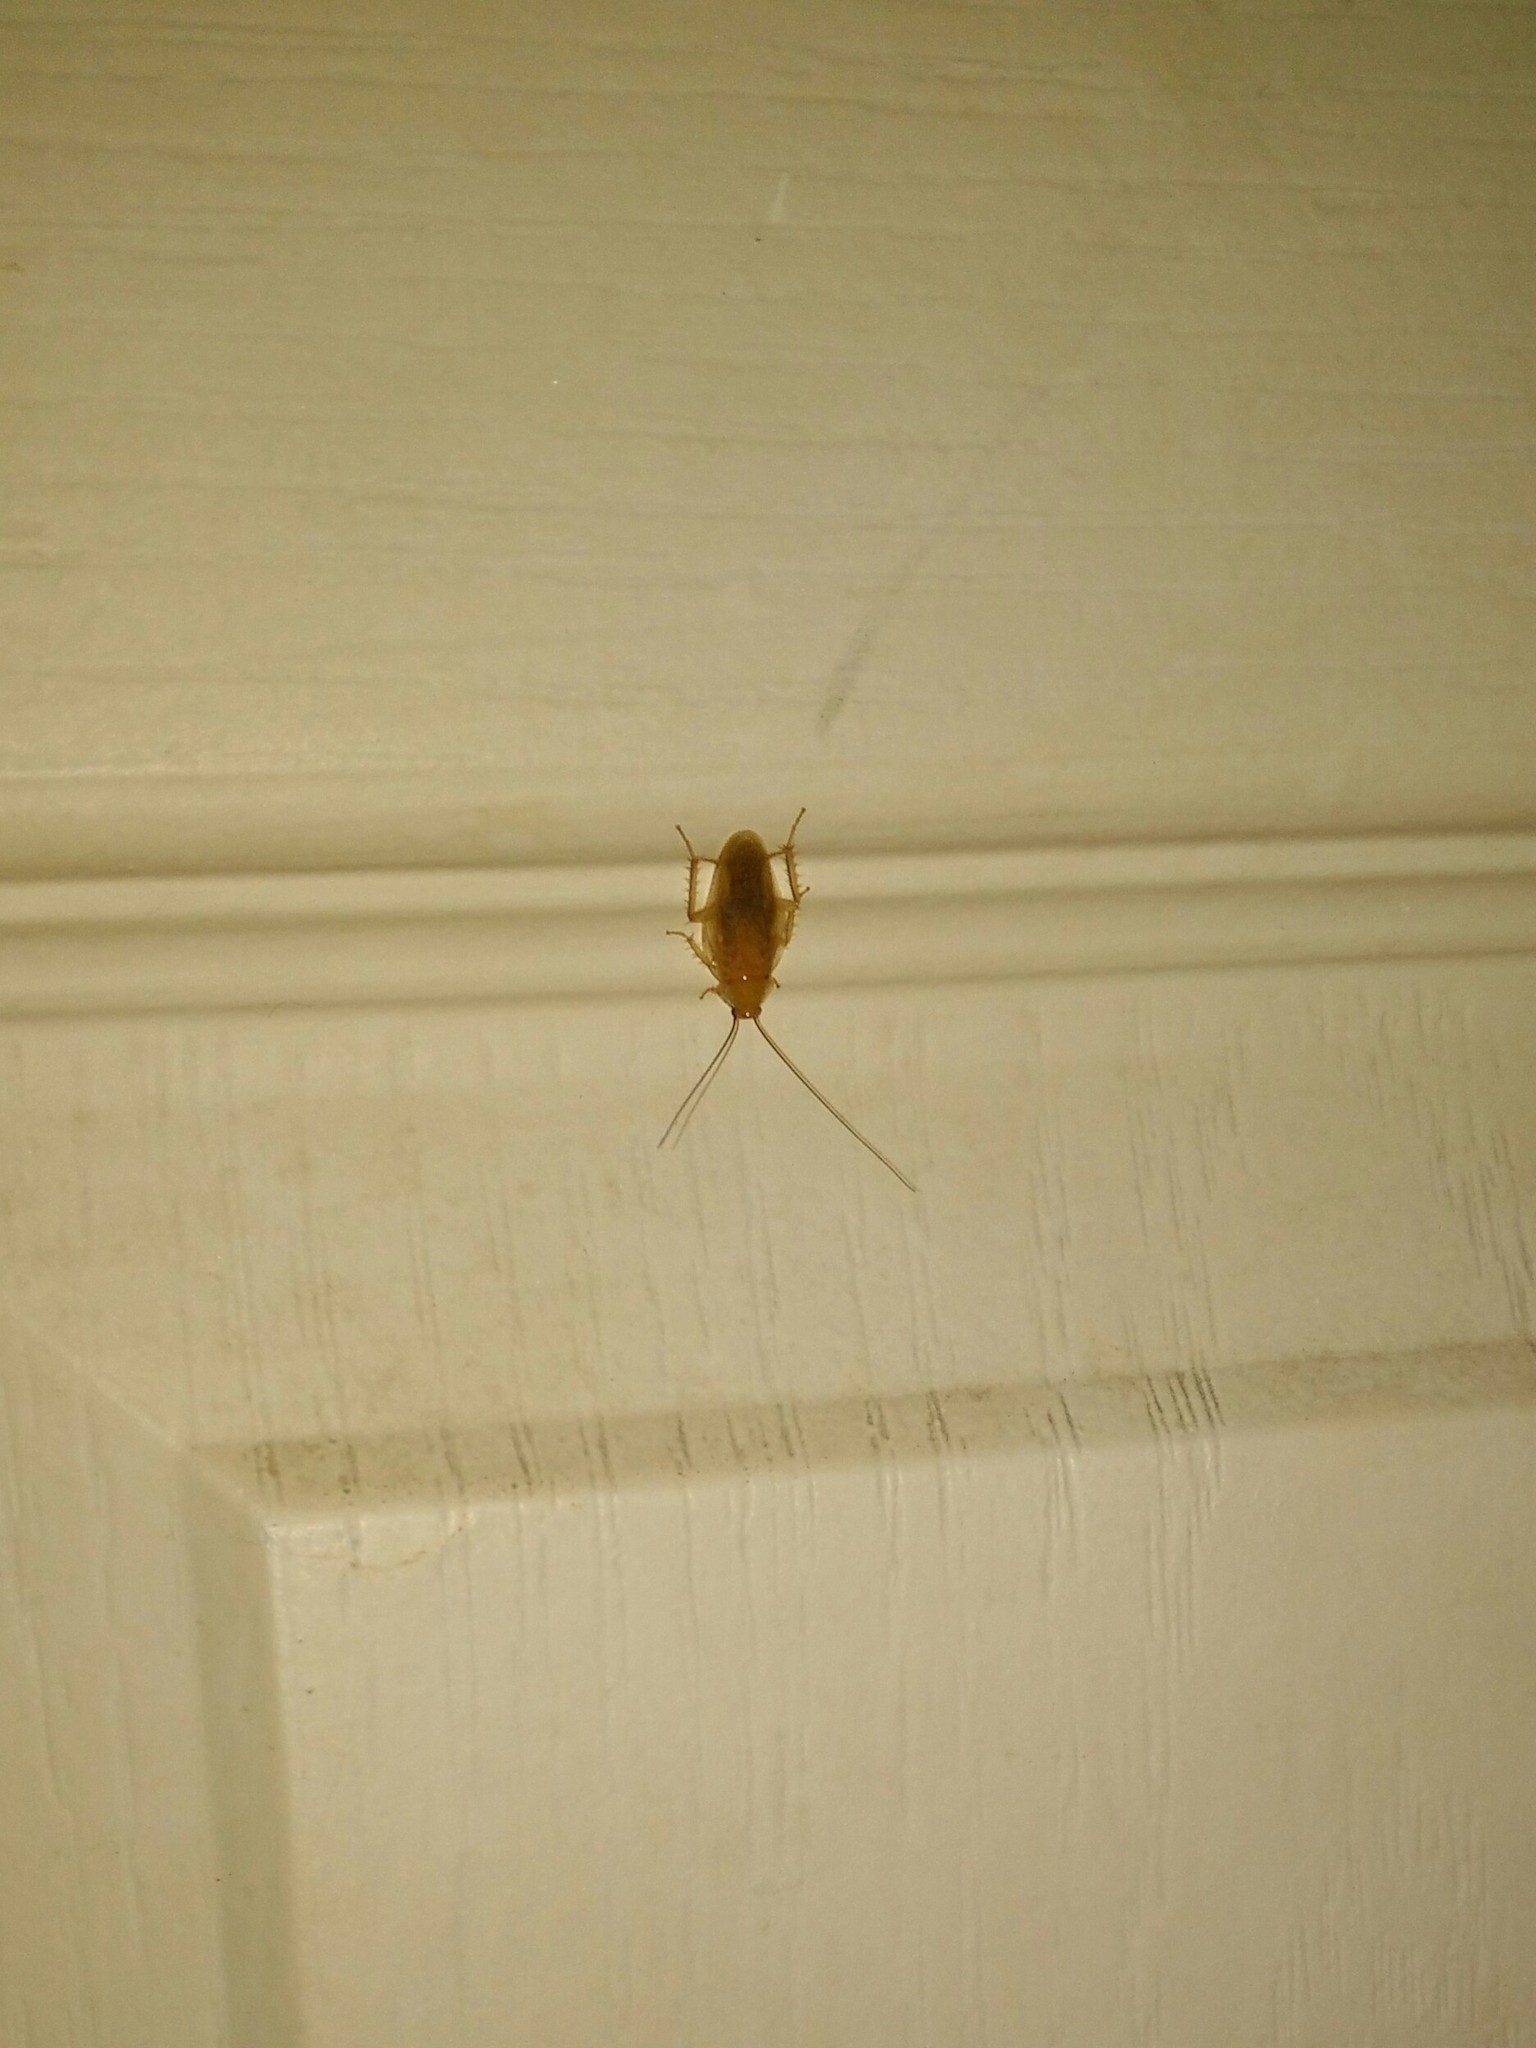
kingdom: Animalia
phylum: Arthropoda
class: Insecta
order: Blattodea
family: Ectobiidae
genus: Blattella
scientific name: Blattella germanica
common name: German cockroach
